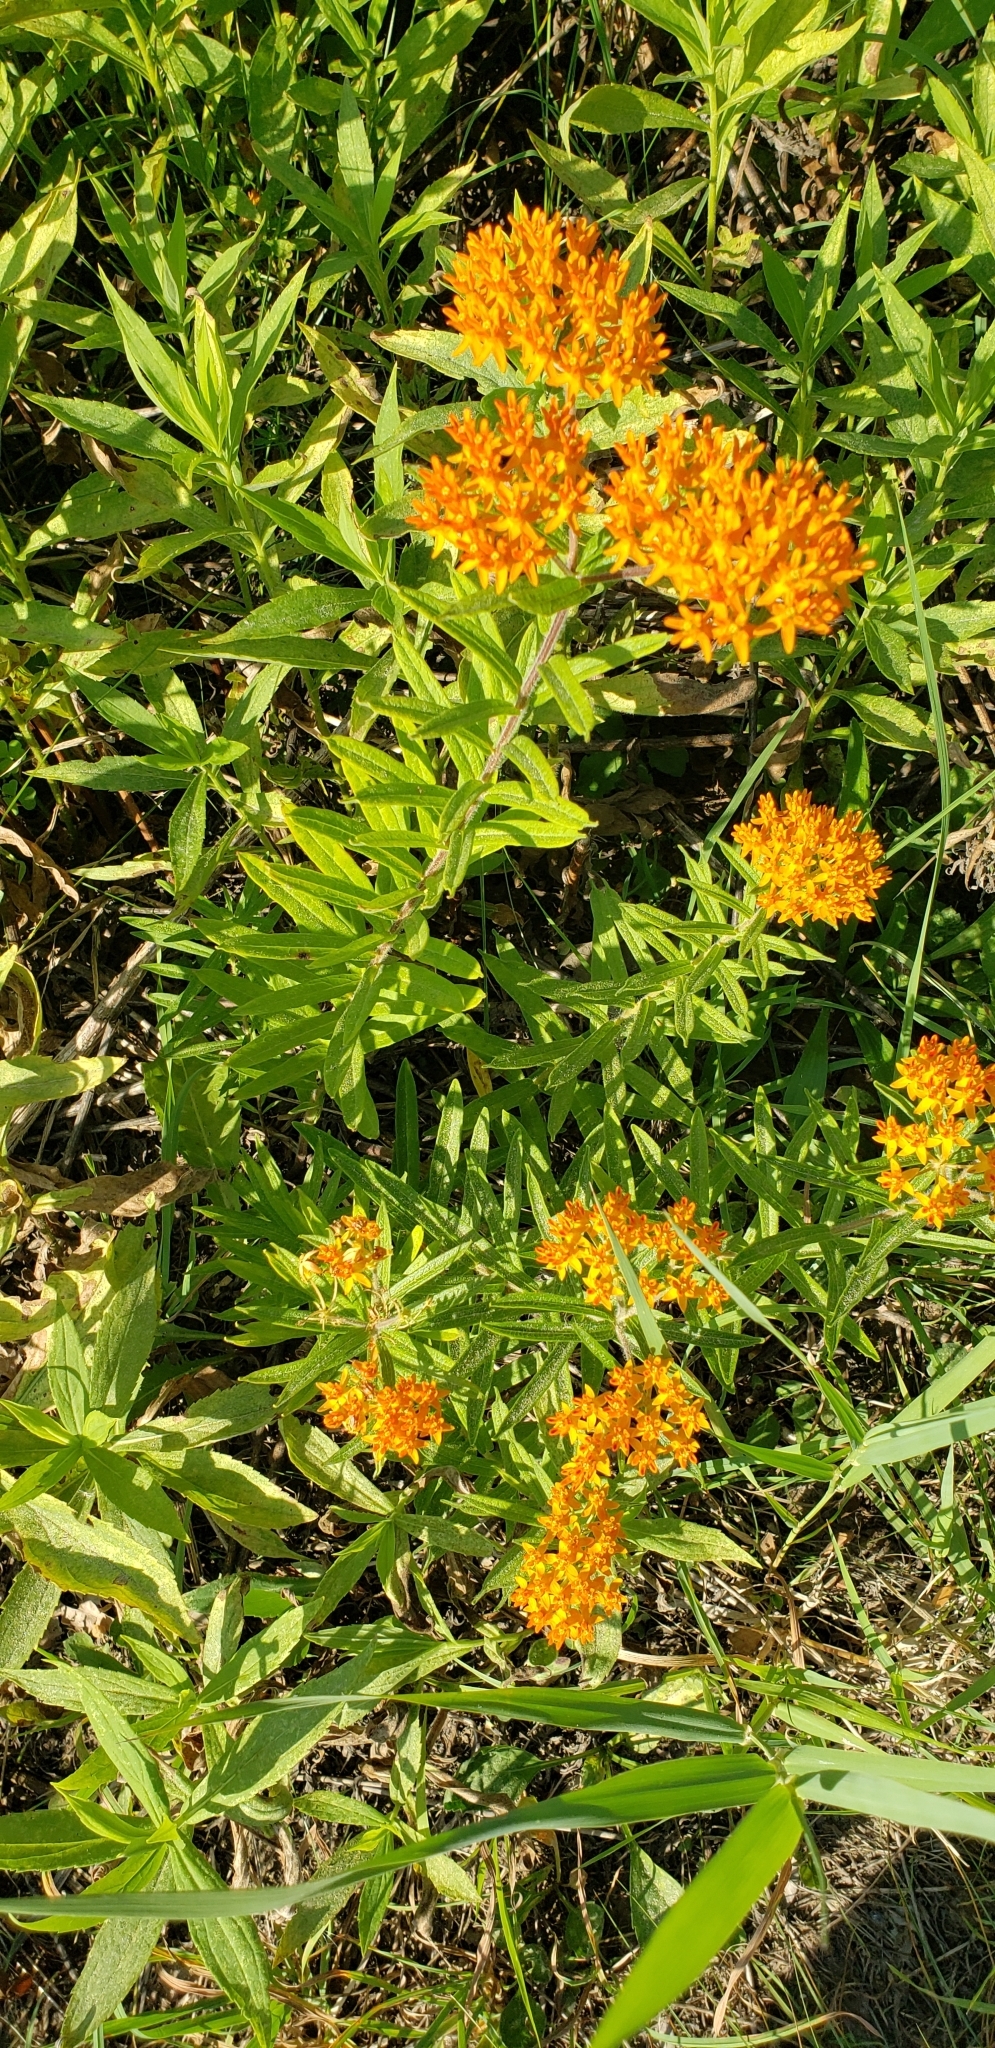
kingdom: Plantae
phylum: Tracheophyta
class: Magnoliopsida
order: Gentianales
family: Apocynaceae
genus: Asclepias
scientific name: Asclepias tuberosa
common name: Butterfly milkweed
